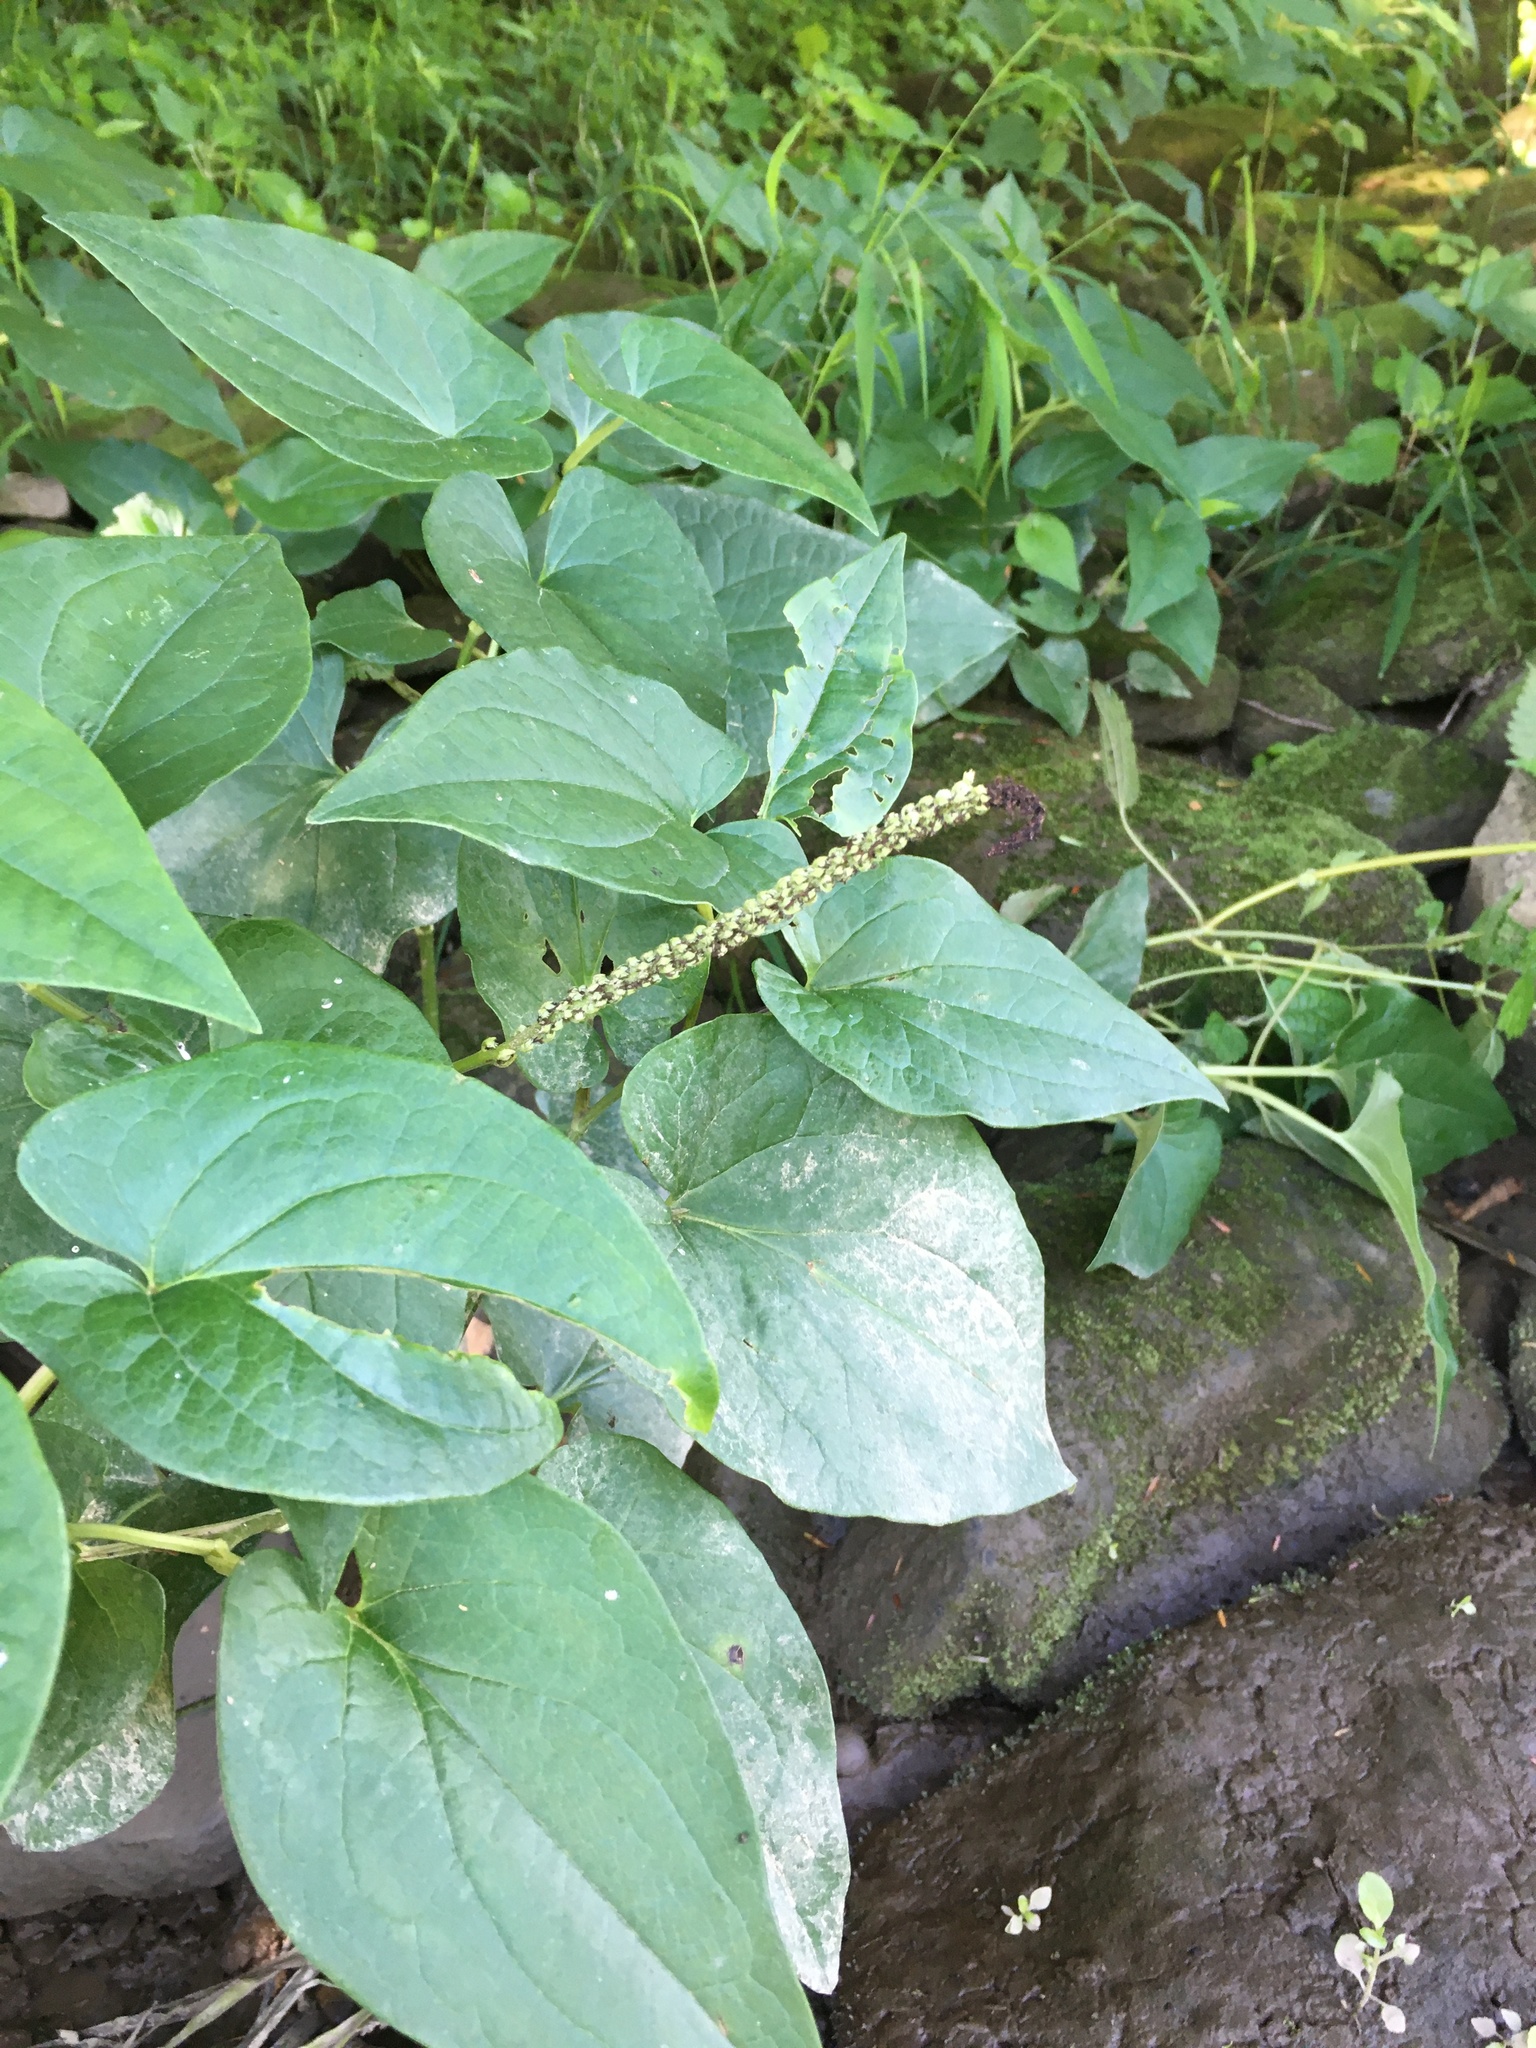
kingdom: Plantae
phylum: Tracheophyta
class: Magnoliopsida
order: Piperales
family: Saururaceae
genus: Saururus
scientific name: Saururus cernuus
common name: Lizard's-tail
